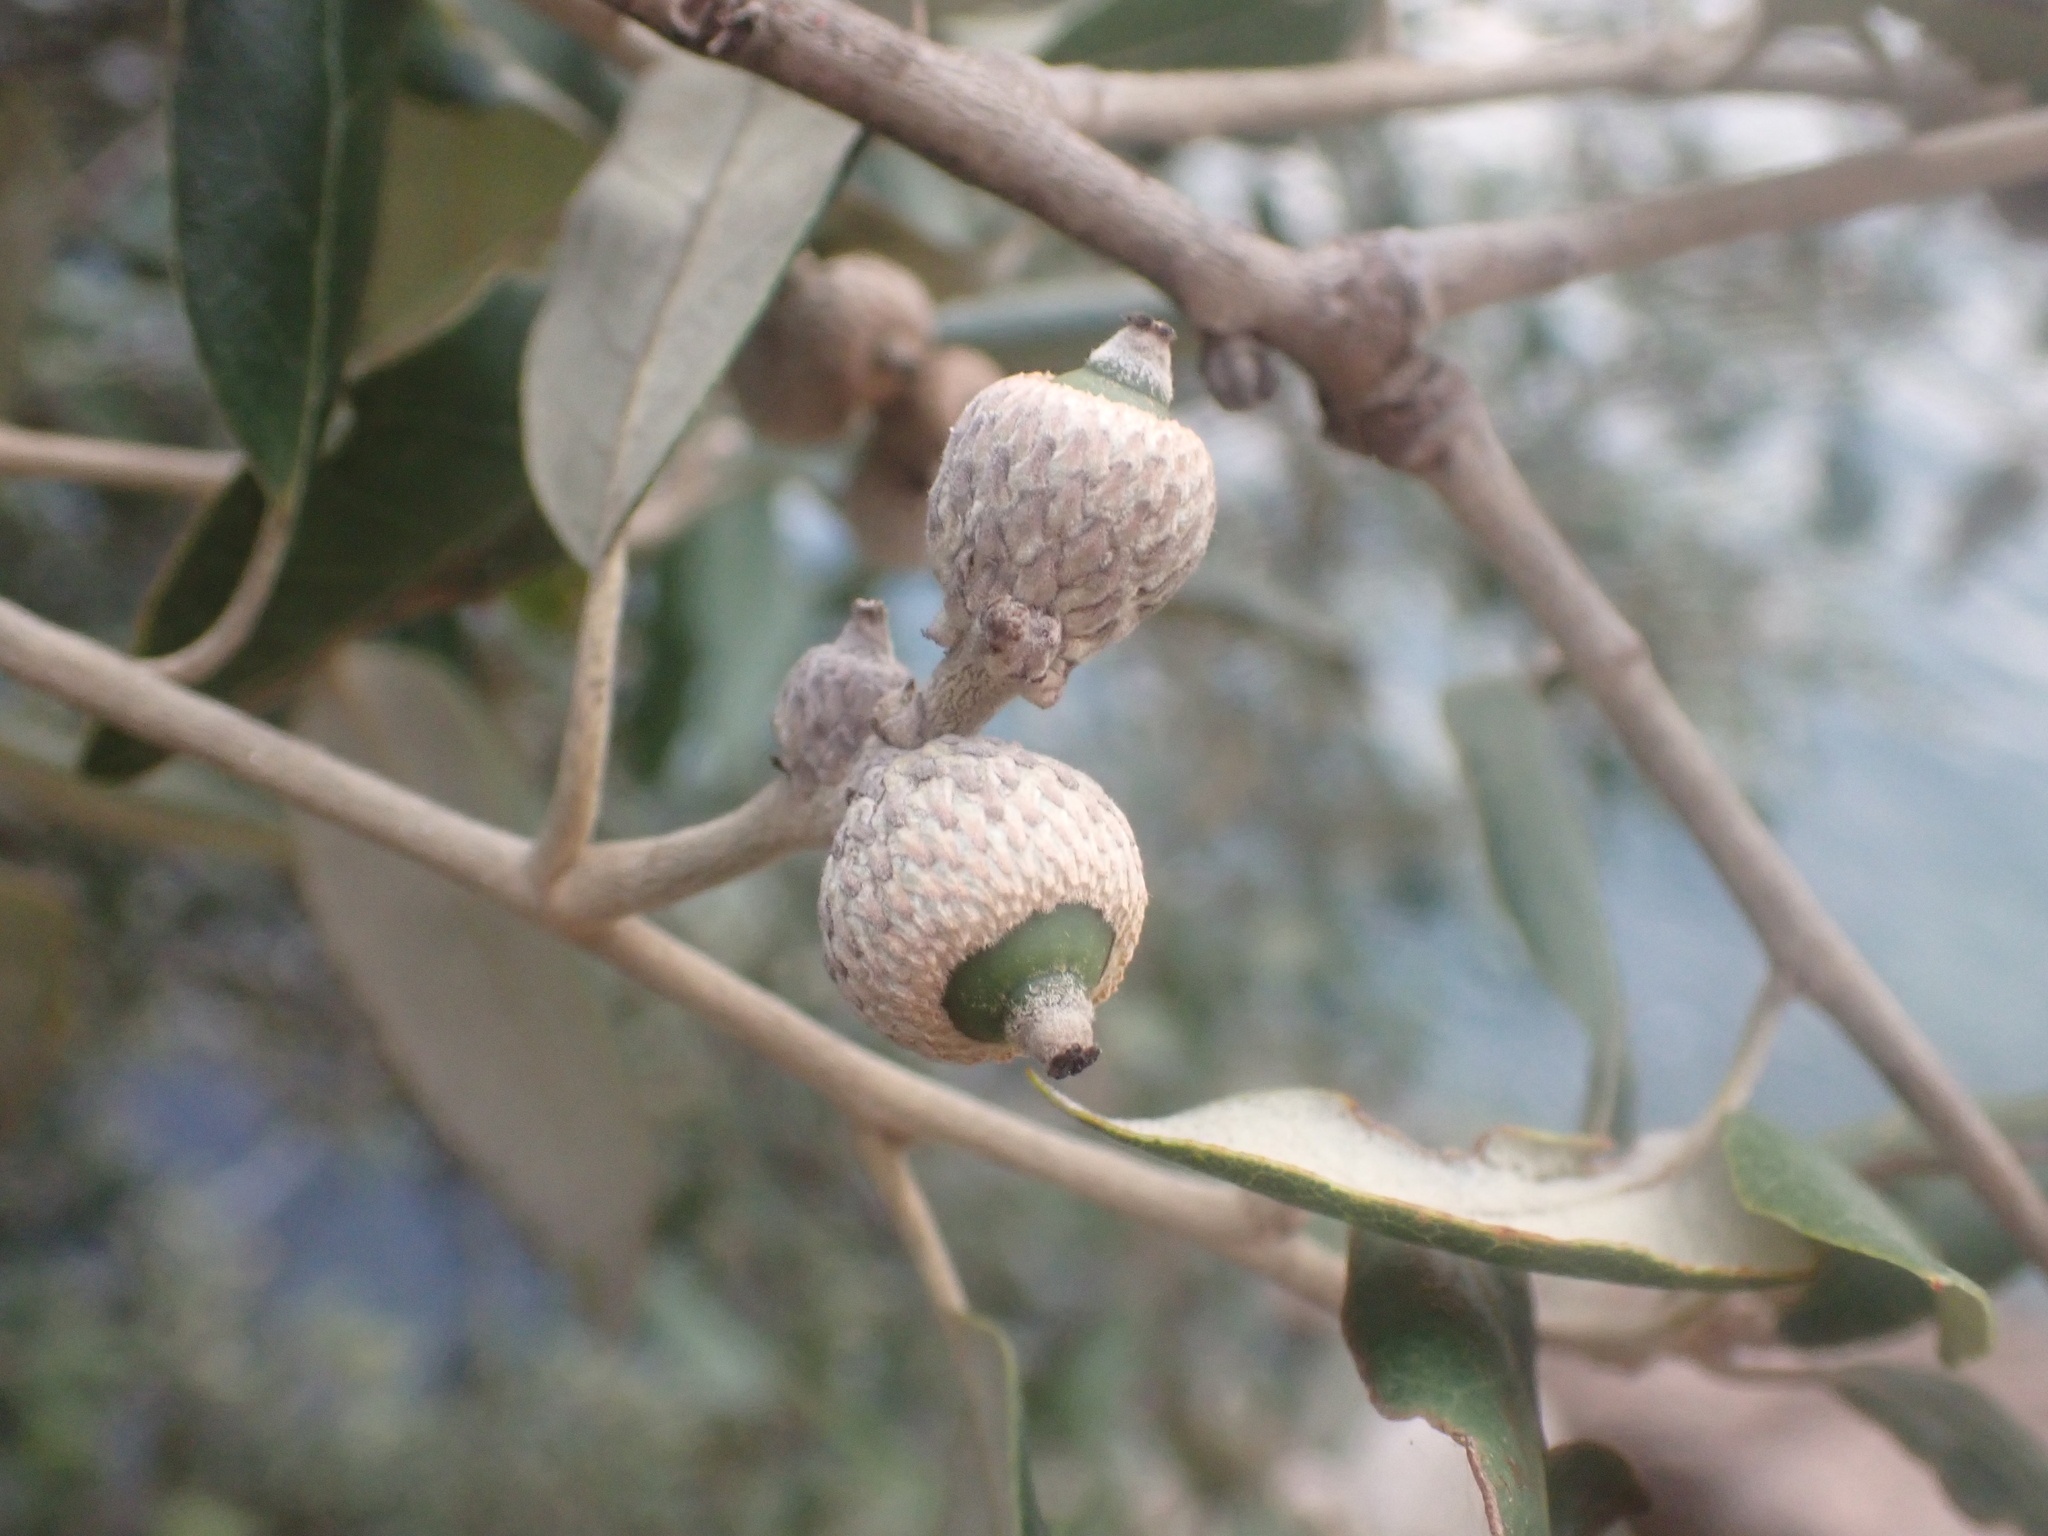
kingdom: Plantae
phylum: Tracheophyta
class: Magnoliopsida
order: Fagales
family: Fagaceae
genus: Quercus
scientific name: Quercus ilex
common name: Evergreen oak
